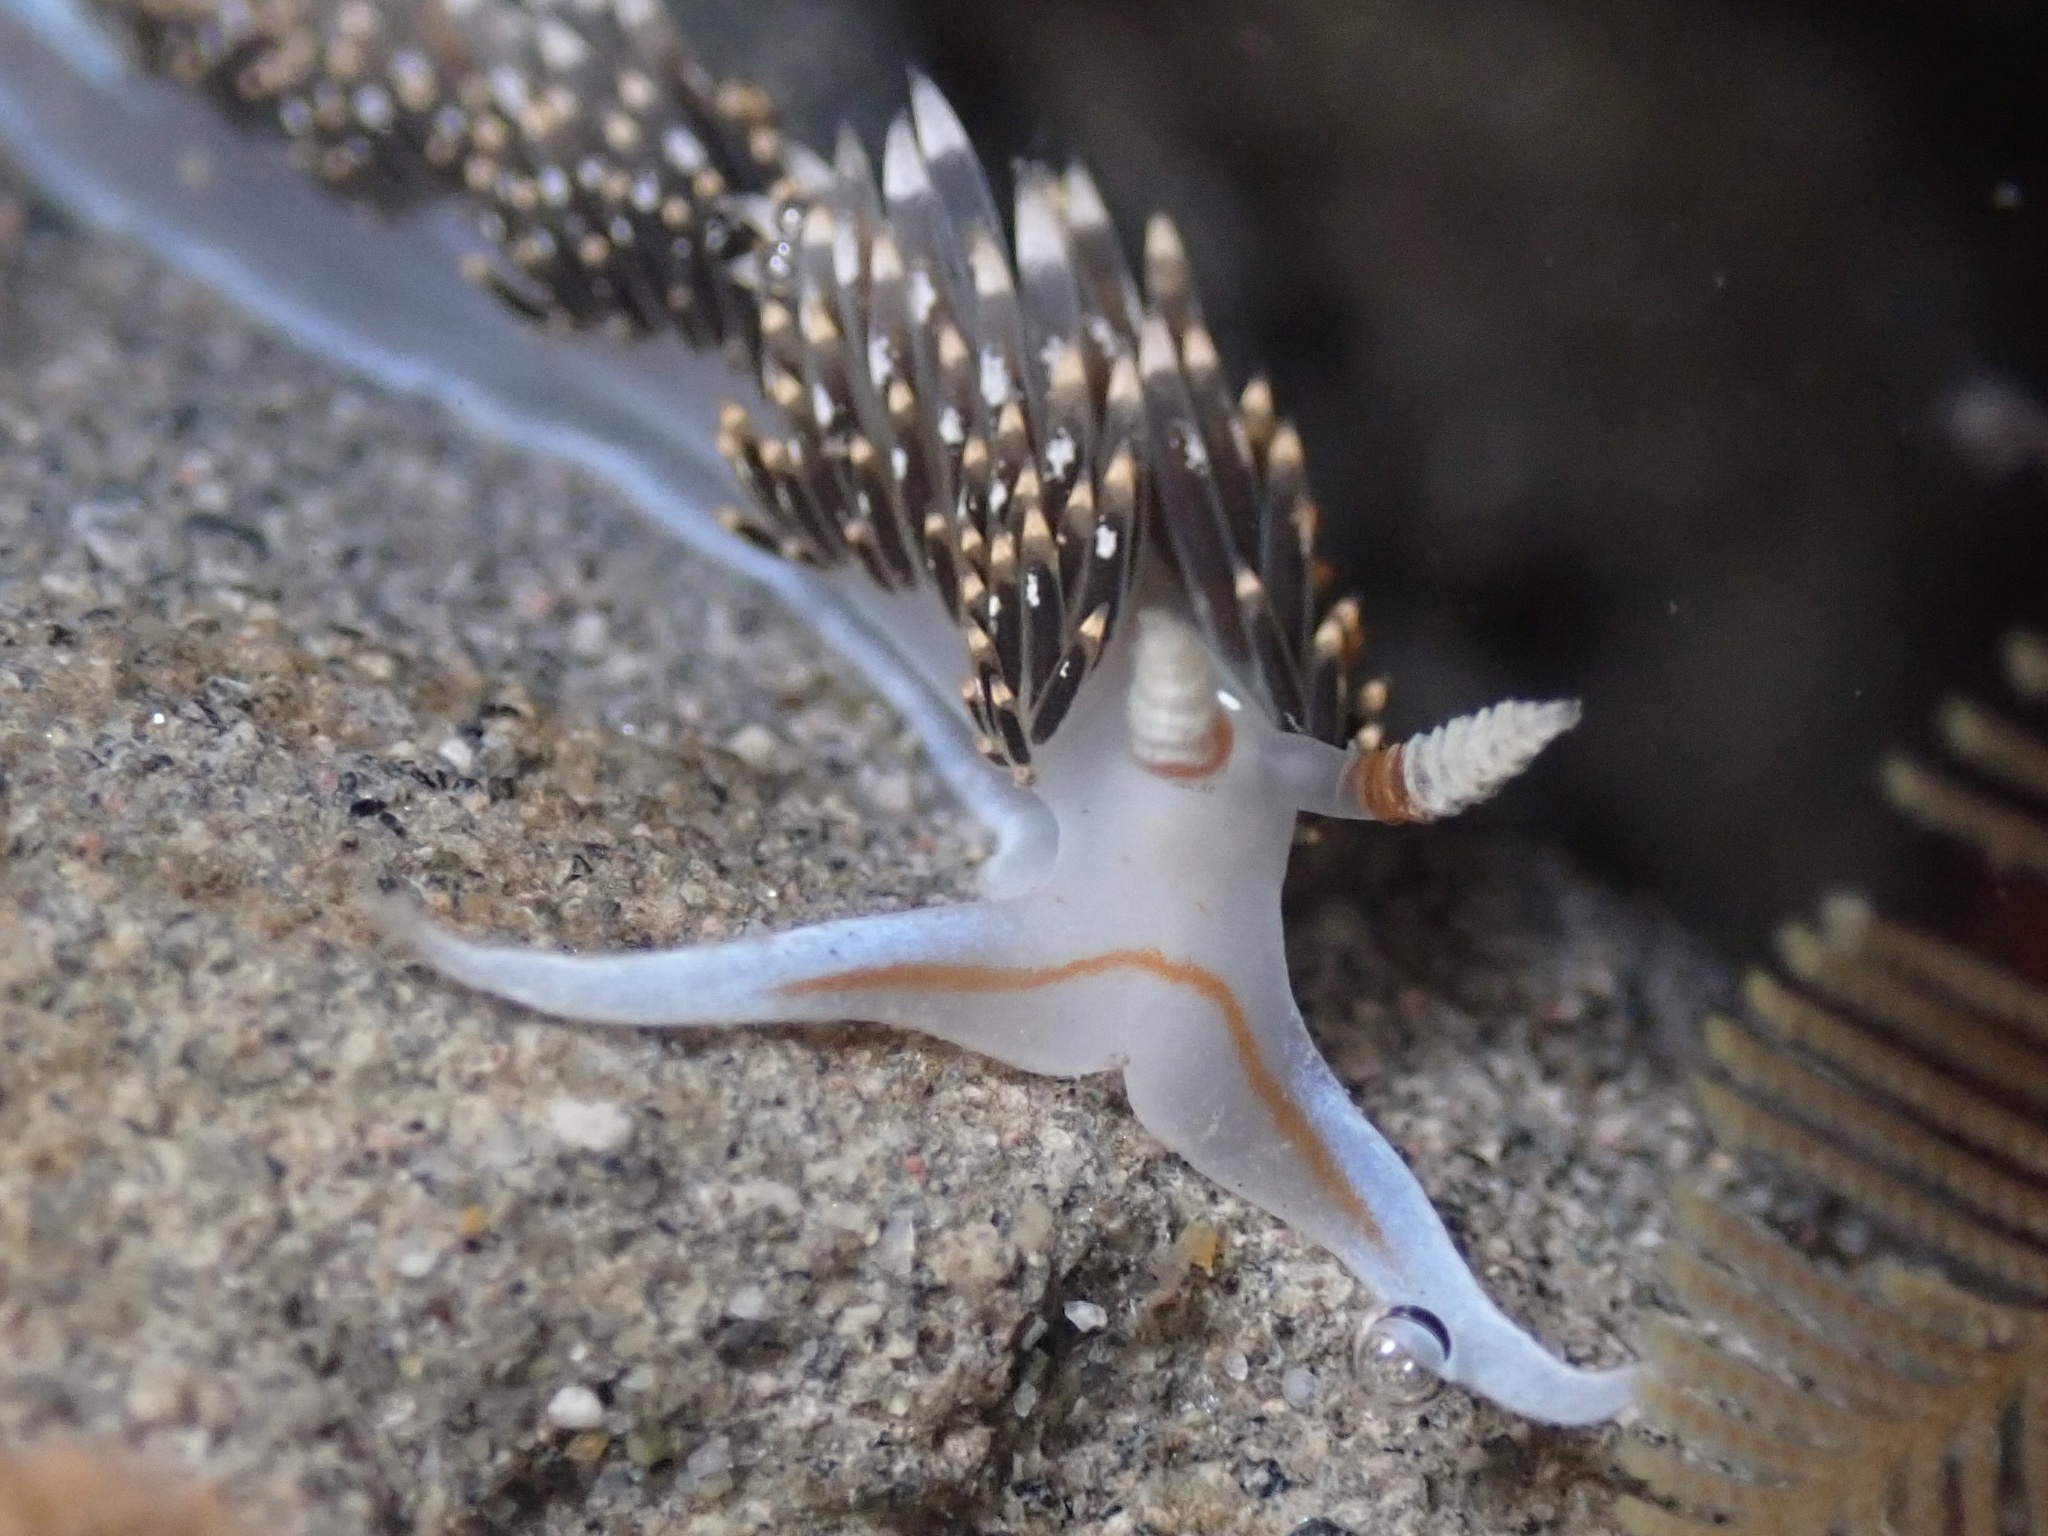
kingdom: Animalia
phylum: Mollusca
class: Gastropoda
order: Nudibranchia
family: Facelinidae
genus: Phidiana
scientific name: Phidiana hiltoni
